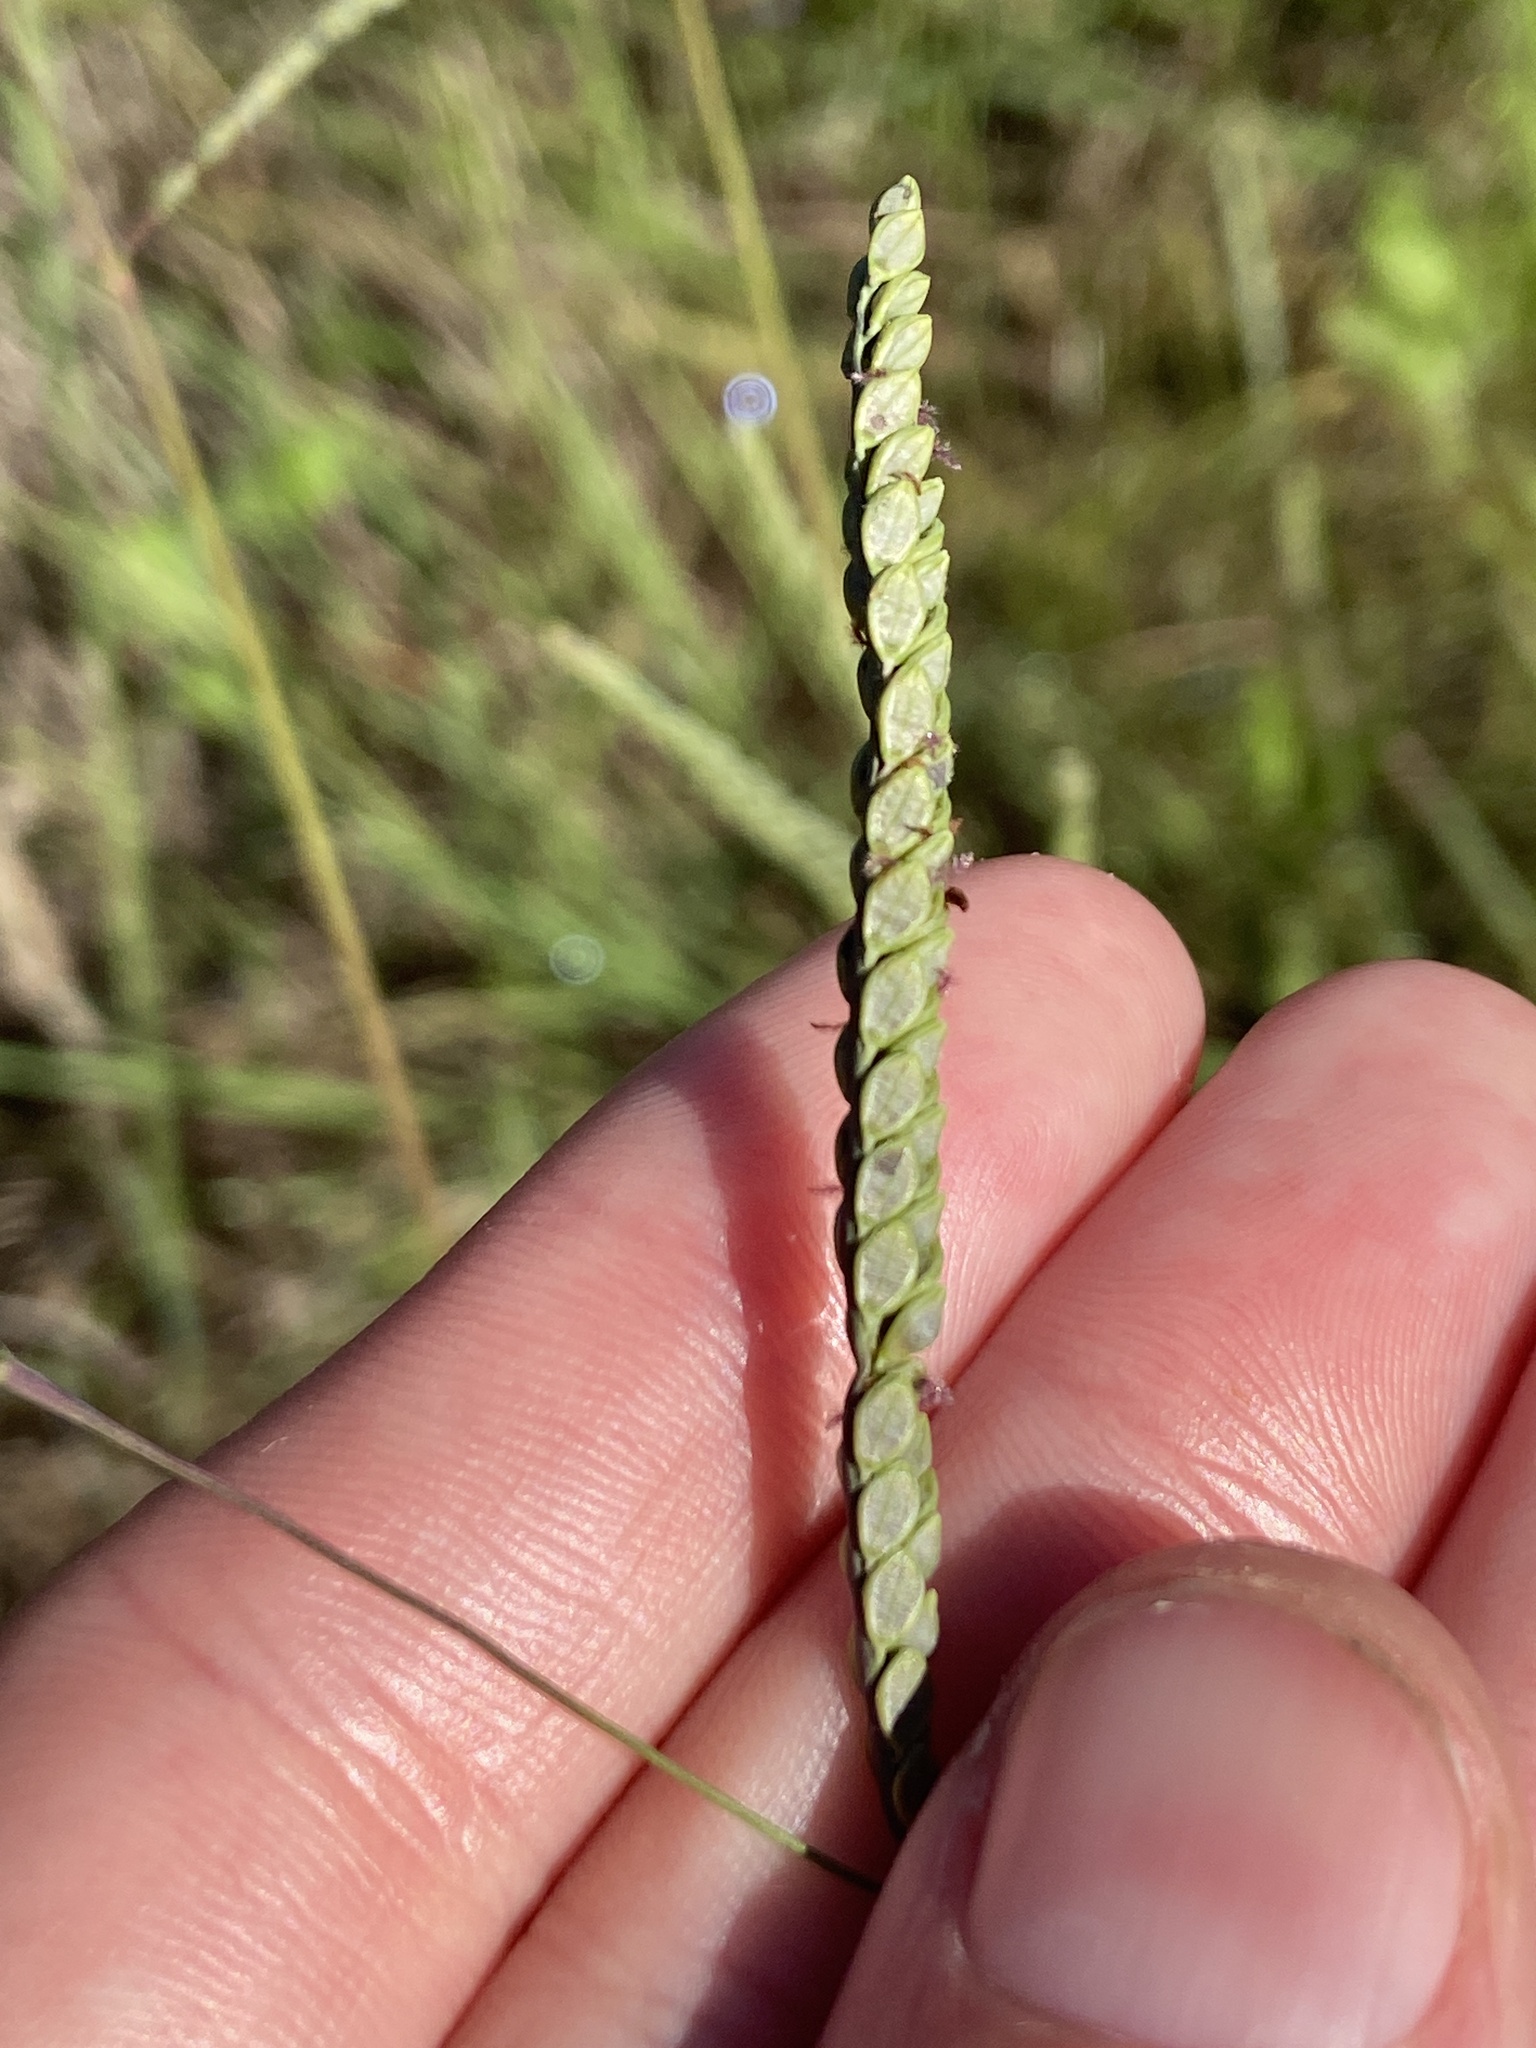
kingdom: Plantae
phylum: Tracheophyta
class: Liliopsida
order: Poales
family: Poaceae
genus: Paspalum
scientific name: Paspalum plicatulum
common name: Top paspalum
